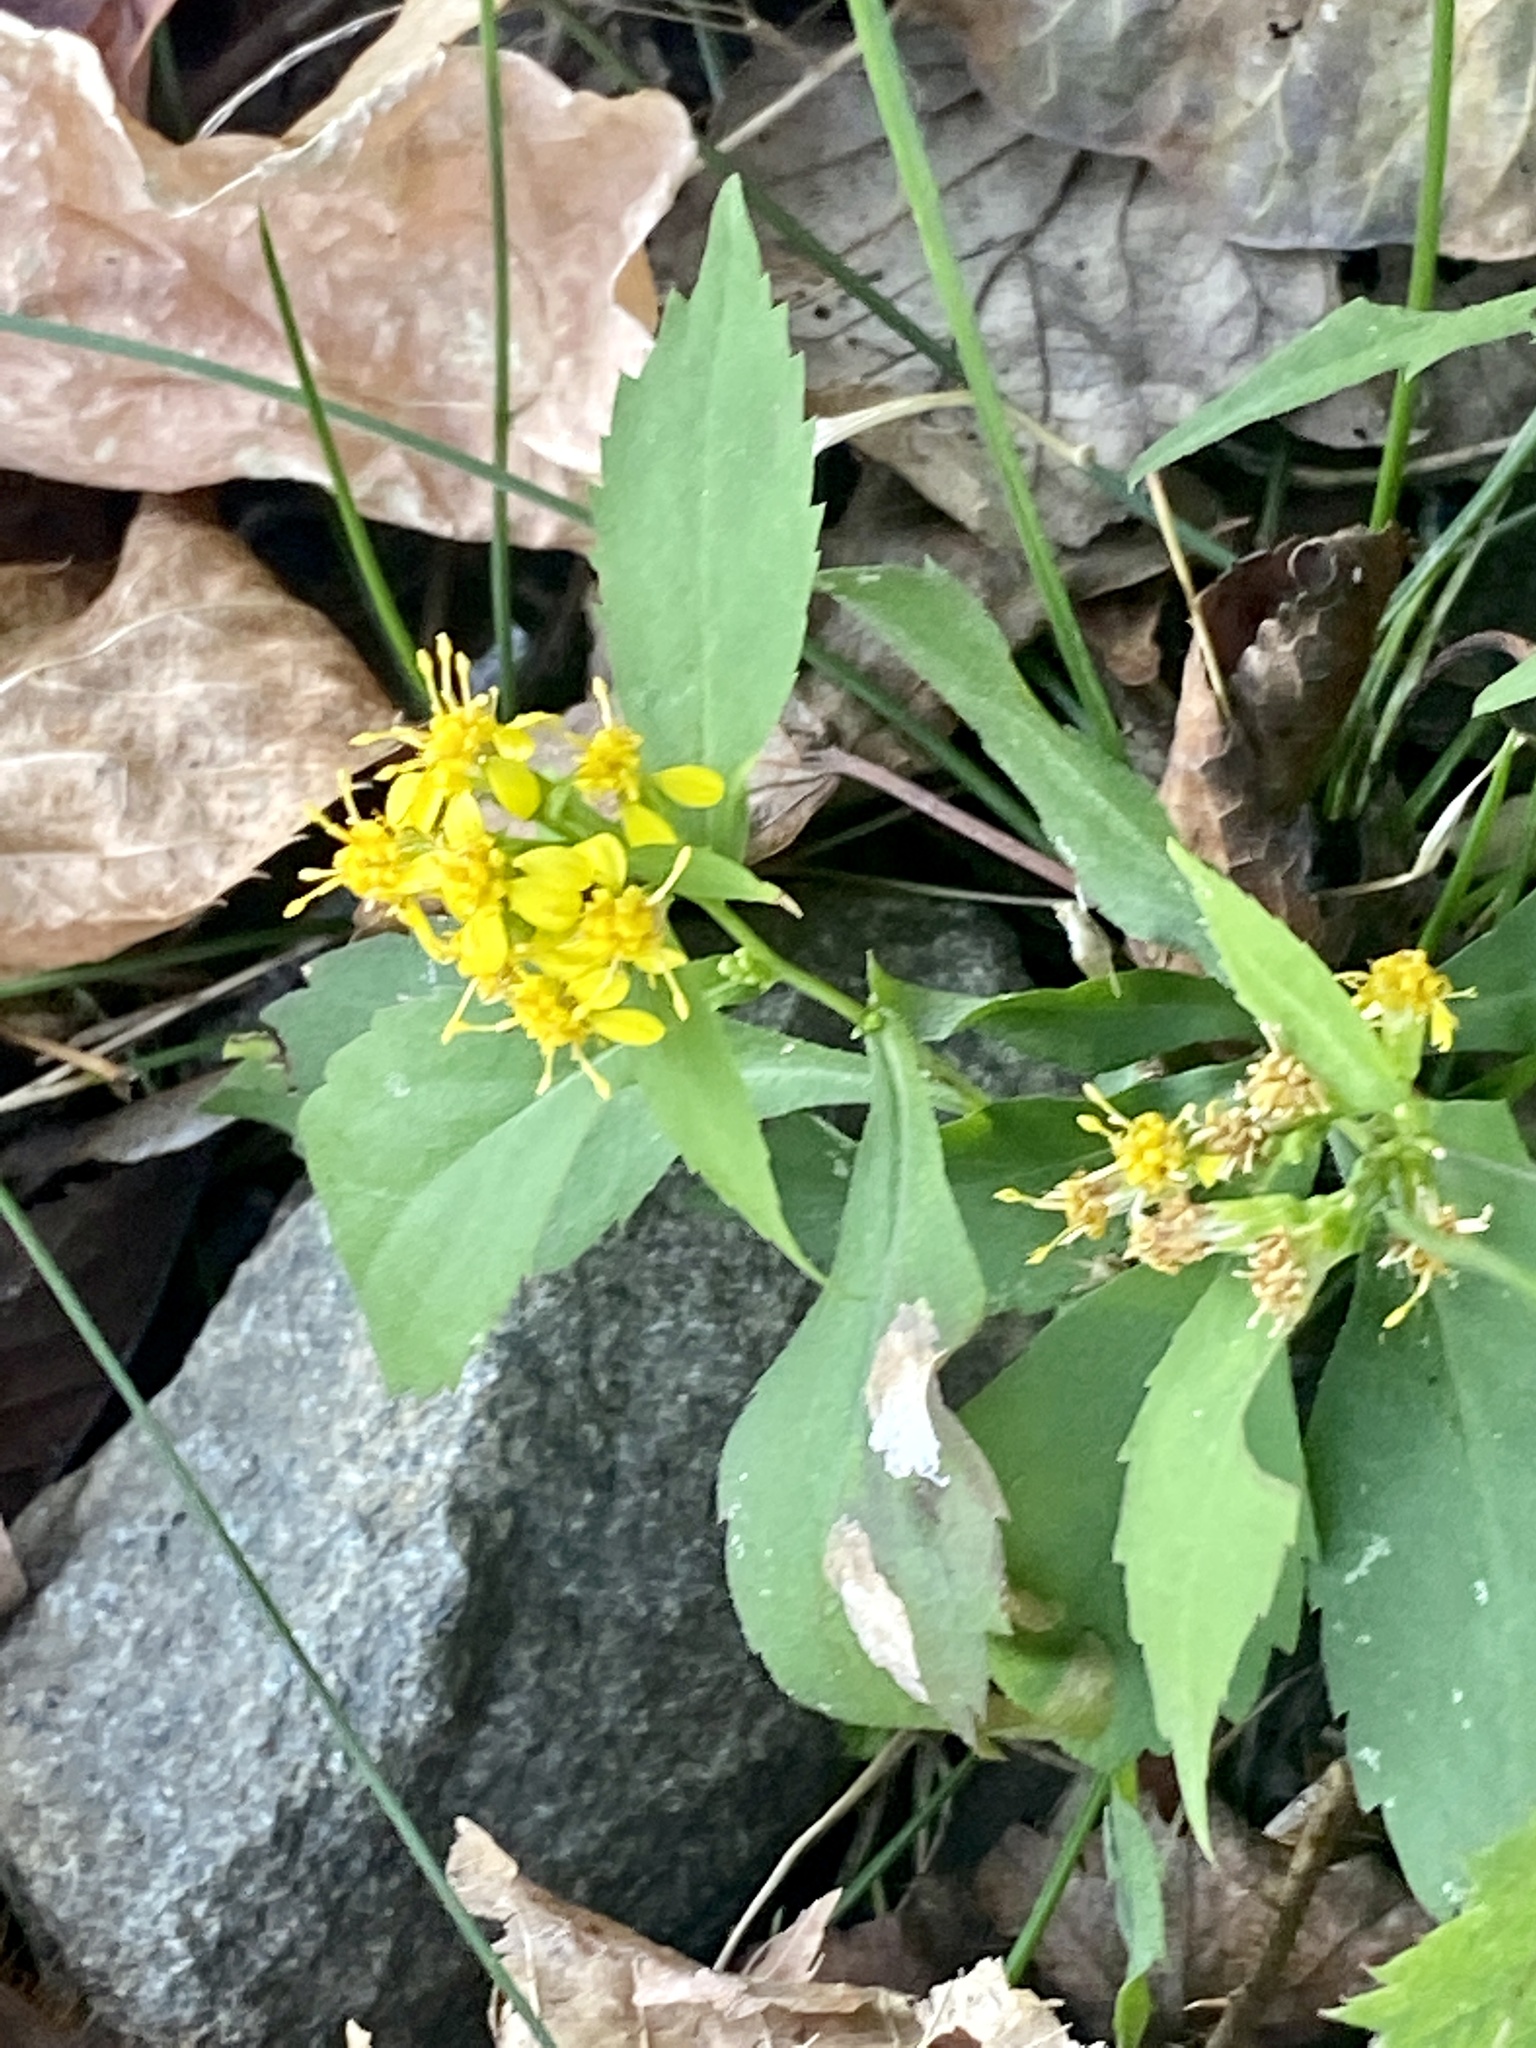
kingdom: Plantae
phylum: Tracheophyta
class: Magnoliopsida
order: Asterales
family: Asteraceae
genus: Solidago
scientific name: Solidago flexicaulis
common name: Zig-zag goldenrod
